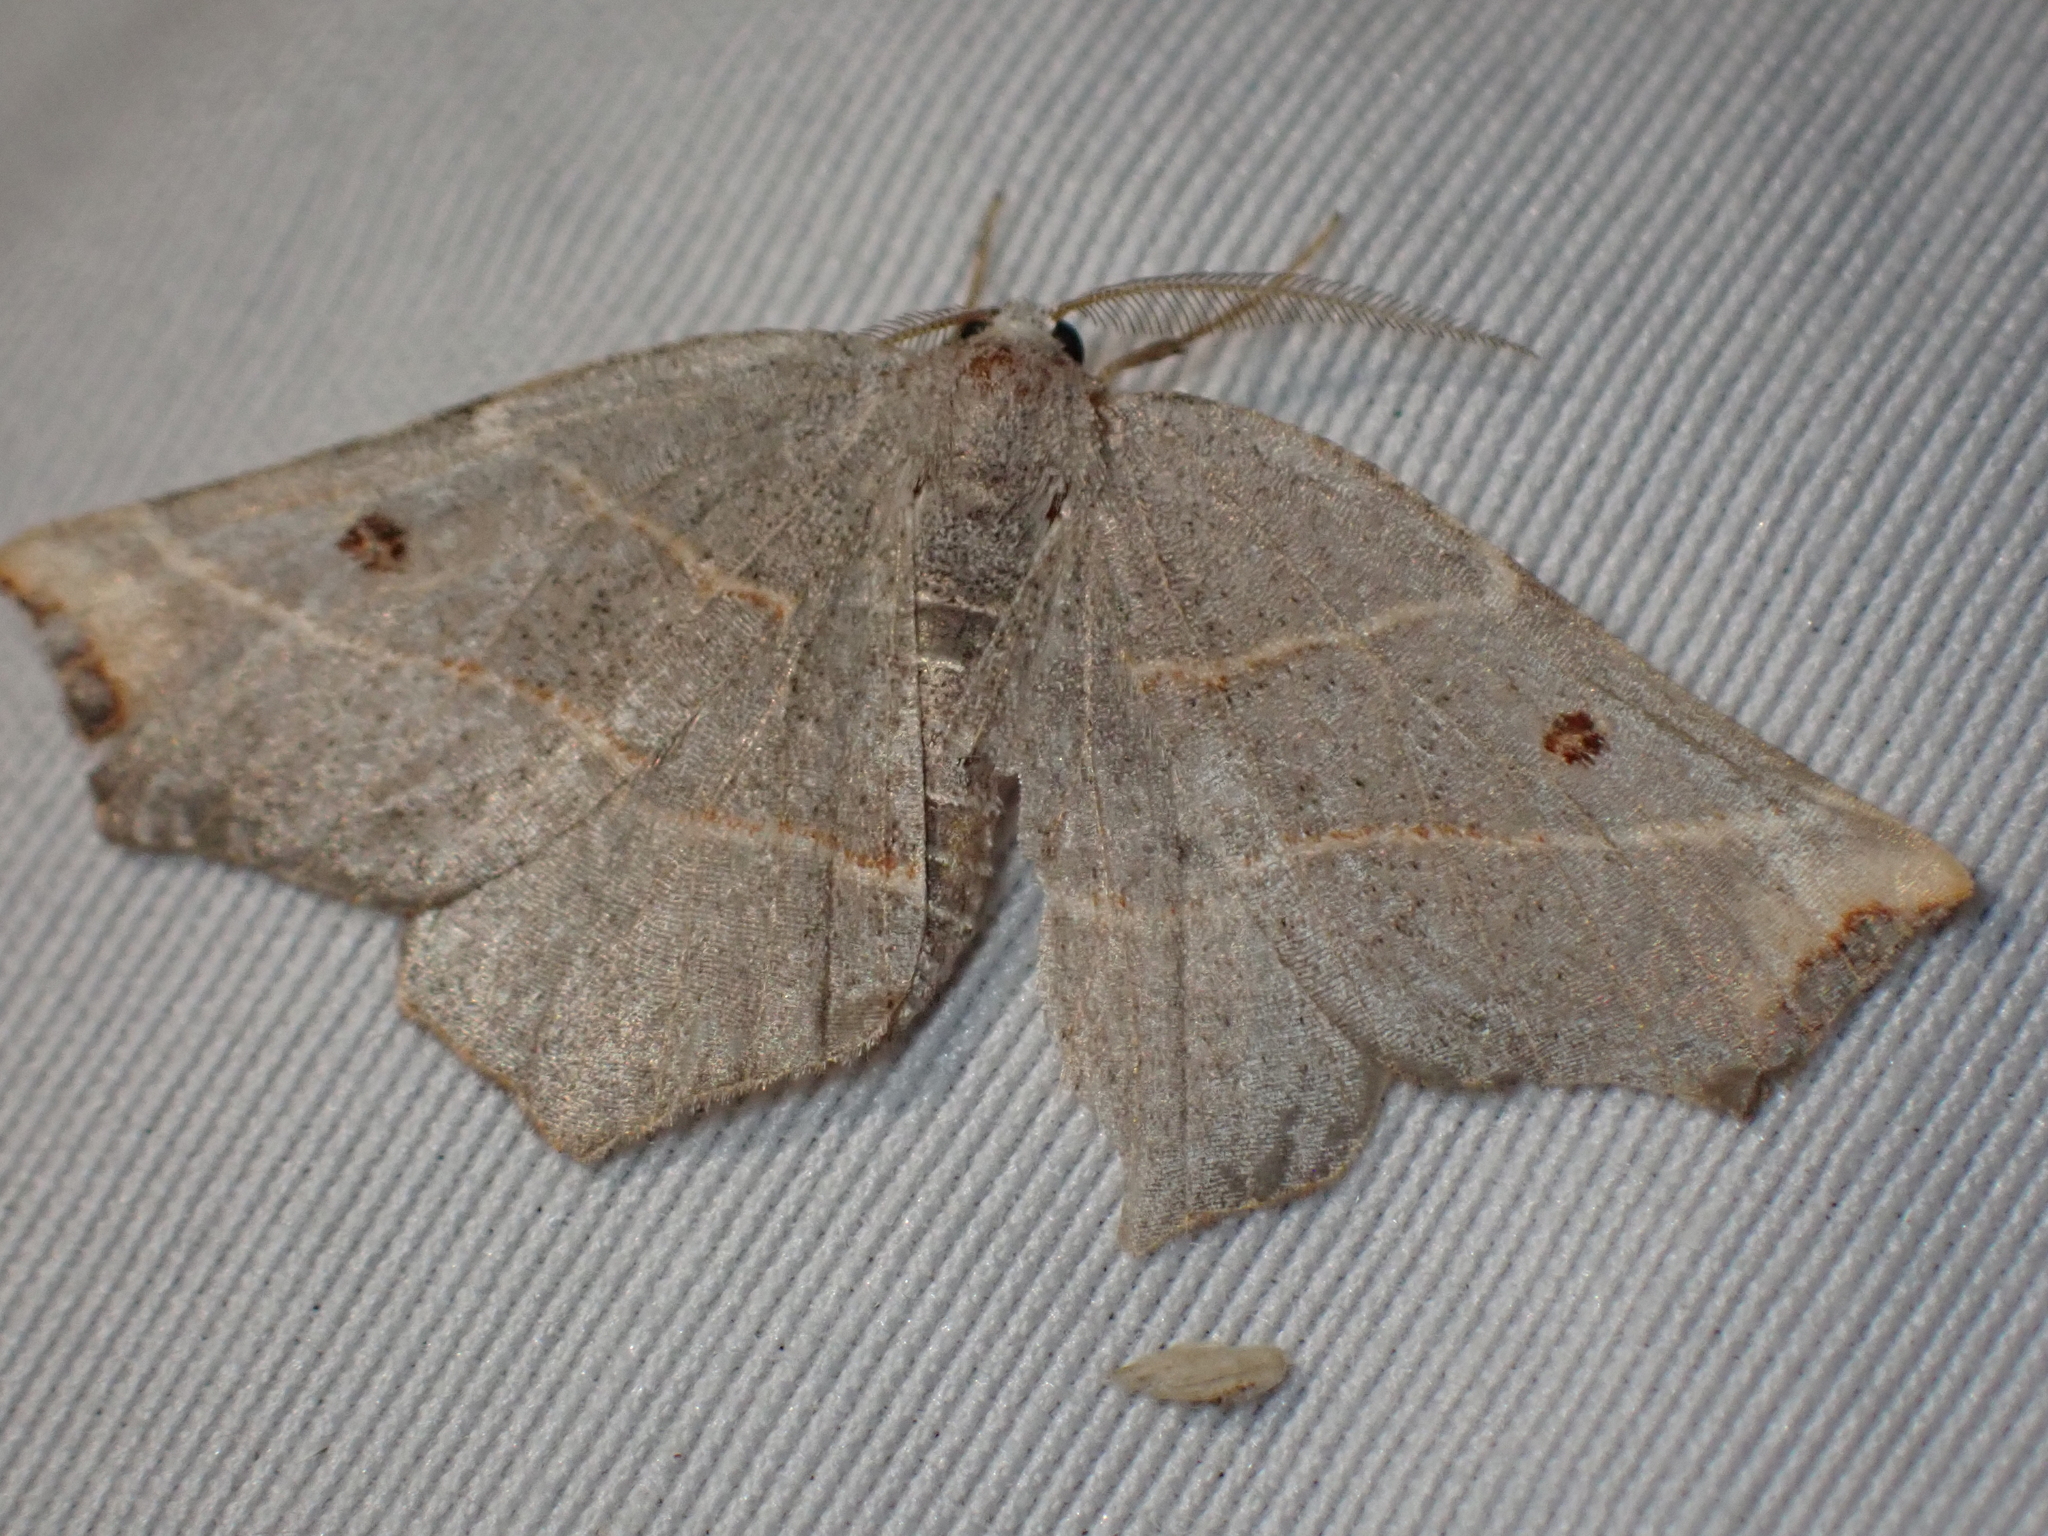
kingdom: Animalia
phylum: Arthropoda
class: Insecta
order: Lepidoptera
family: Geometridae
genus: Metanema
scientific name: Metanema inatomaria
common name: Pale metanema
